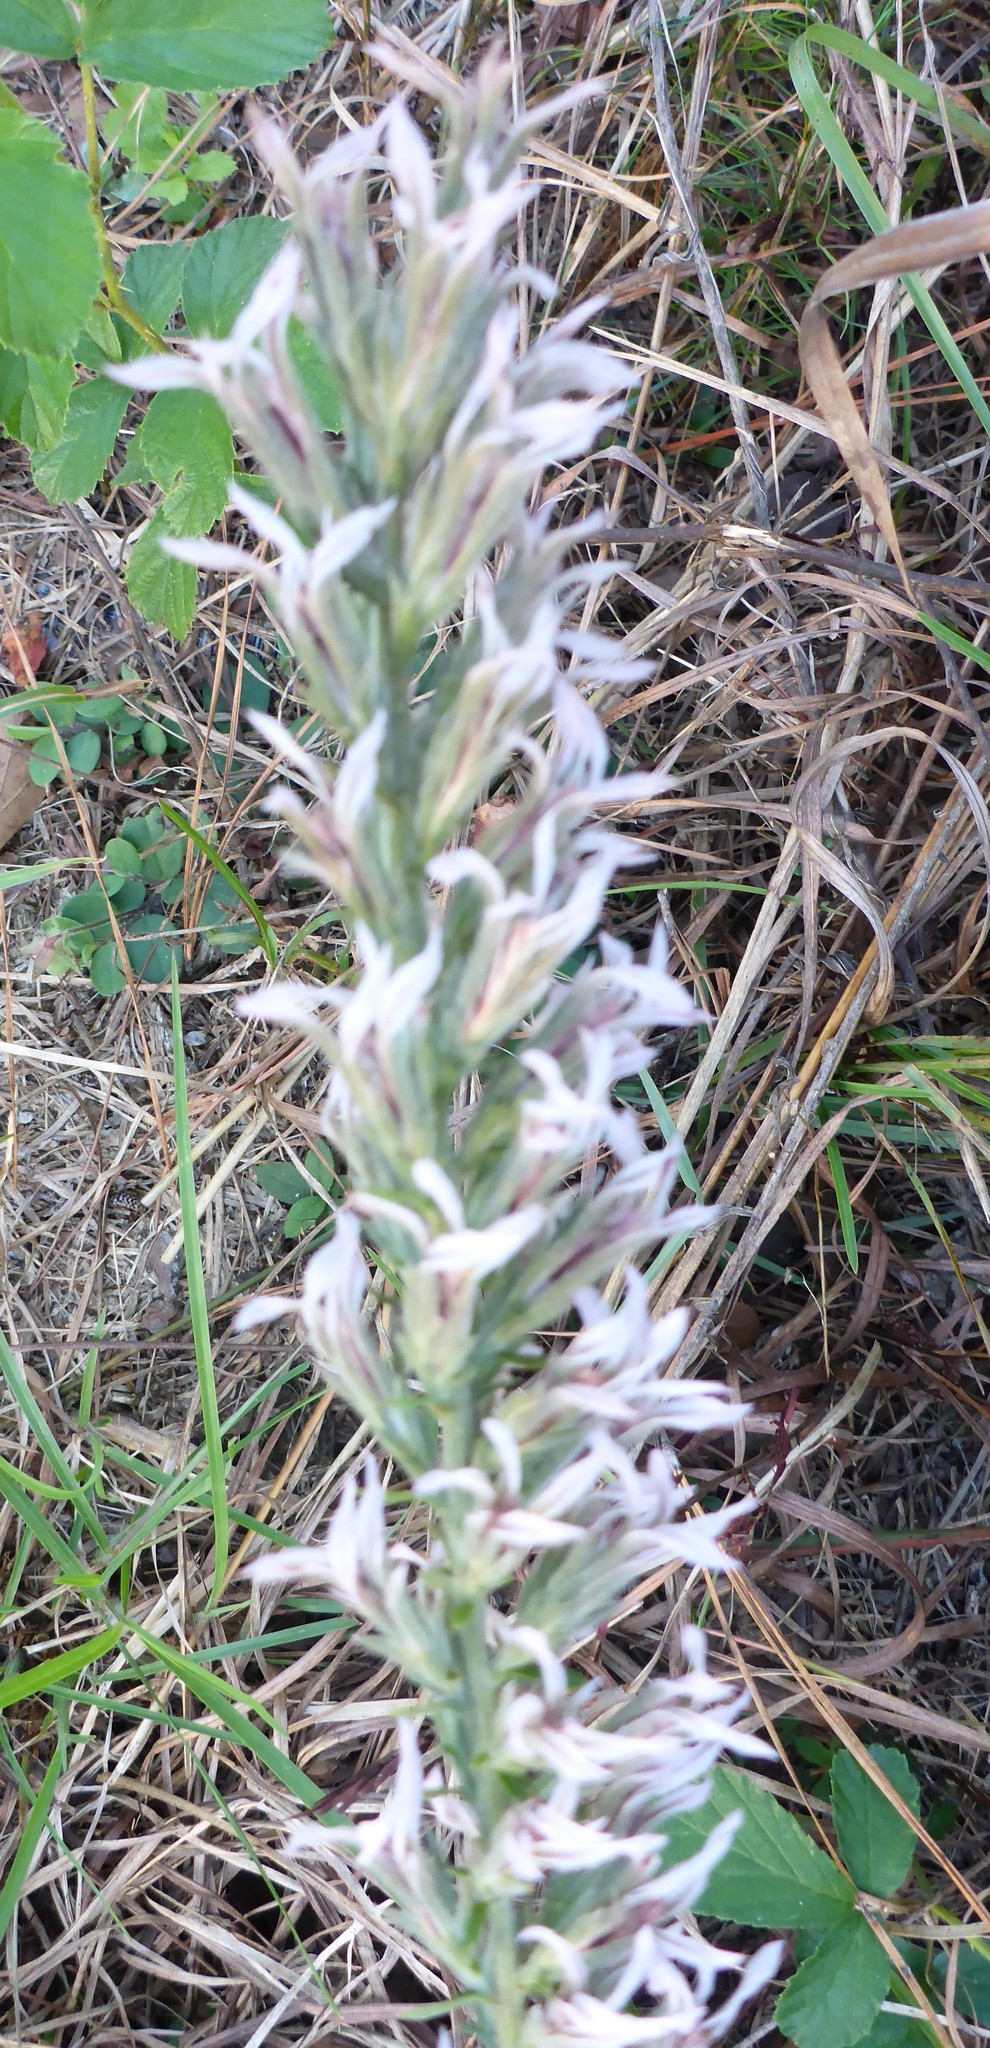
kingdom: Plantae
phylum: Tracheophyta
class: Magnoliopsida
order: Asterales
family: Asteraceae
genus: Liatris
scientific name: Liatris elegans
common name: Pinkscale gayfeather
